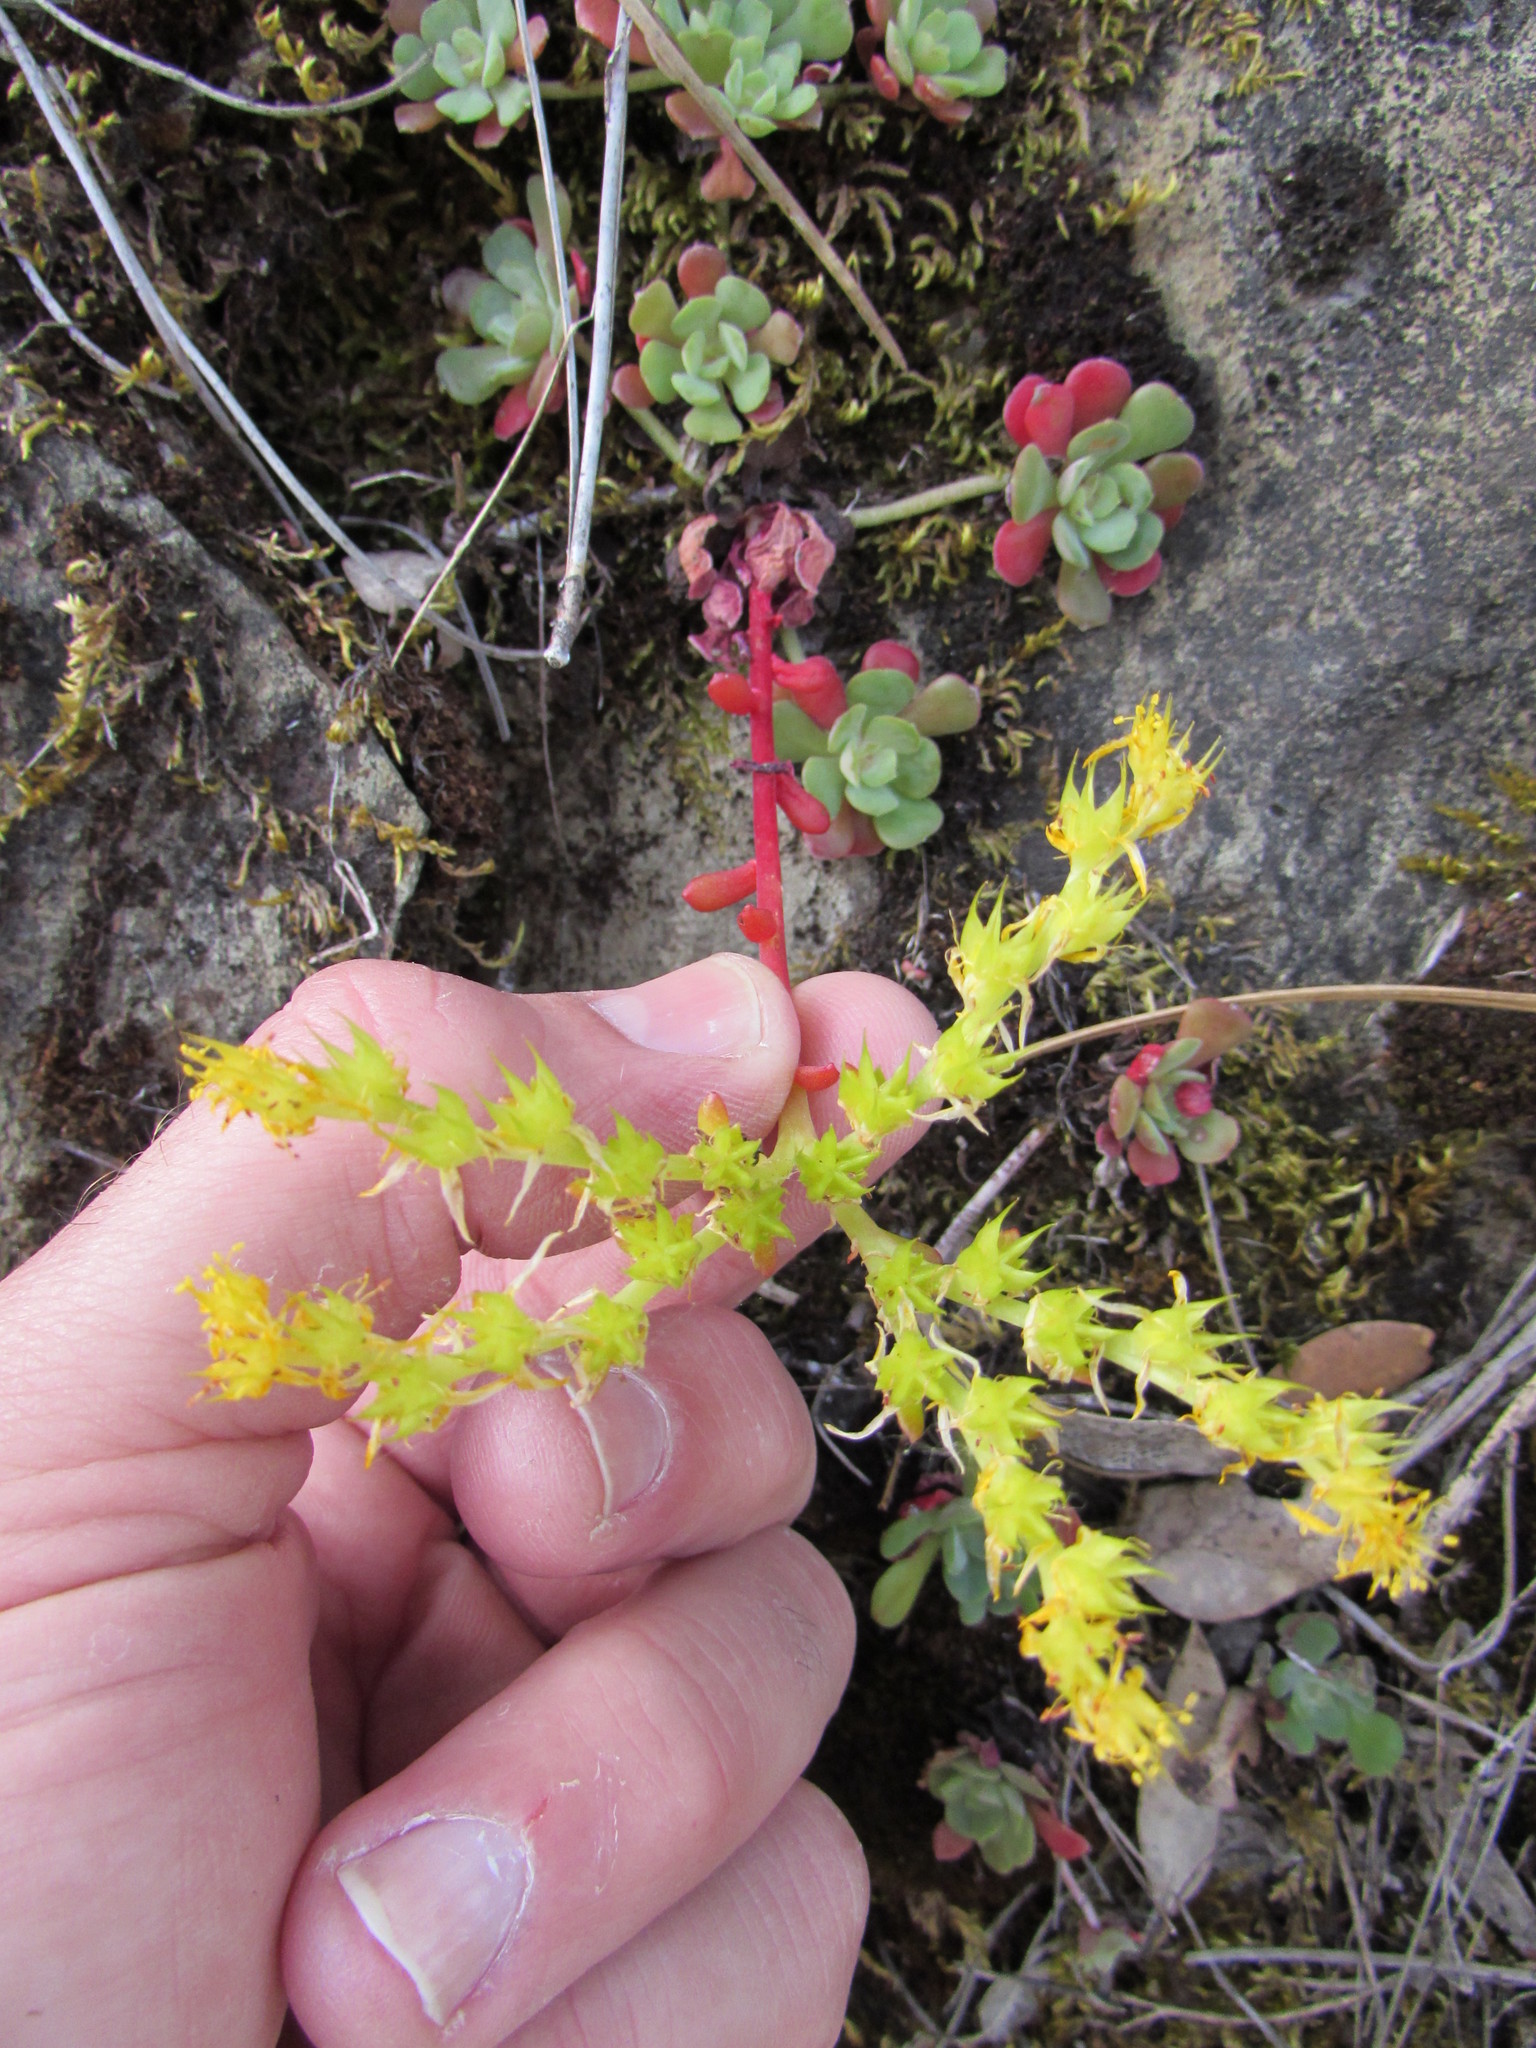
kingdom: Plantae
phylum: Tracheophyta
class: Magnoliopsida
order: Saxifragales
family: Crassulaceae
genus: Sedum
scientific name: Sedum spathulifolium
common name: Colorado stonecrop
